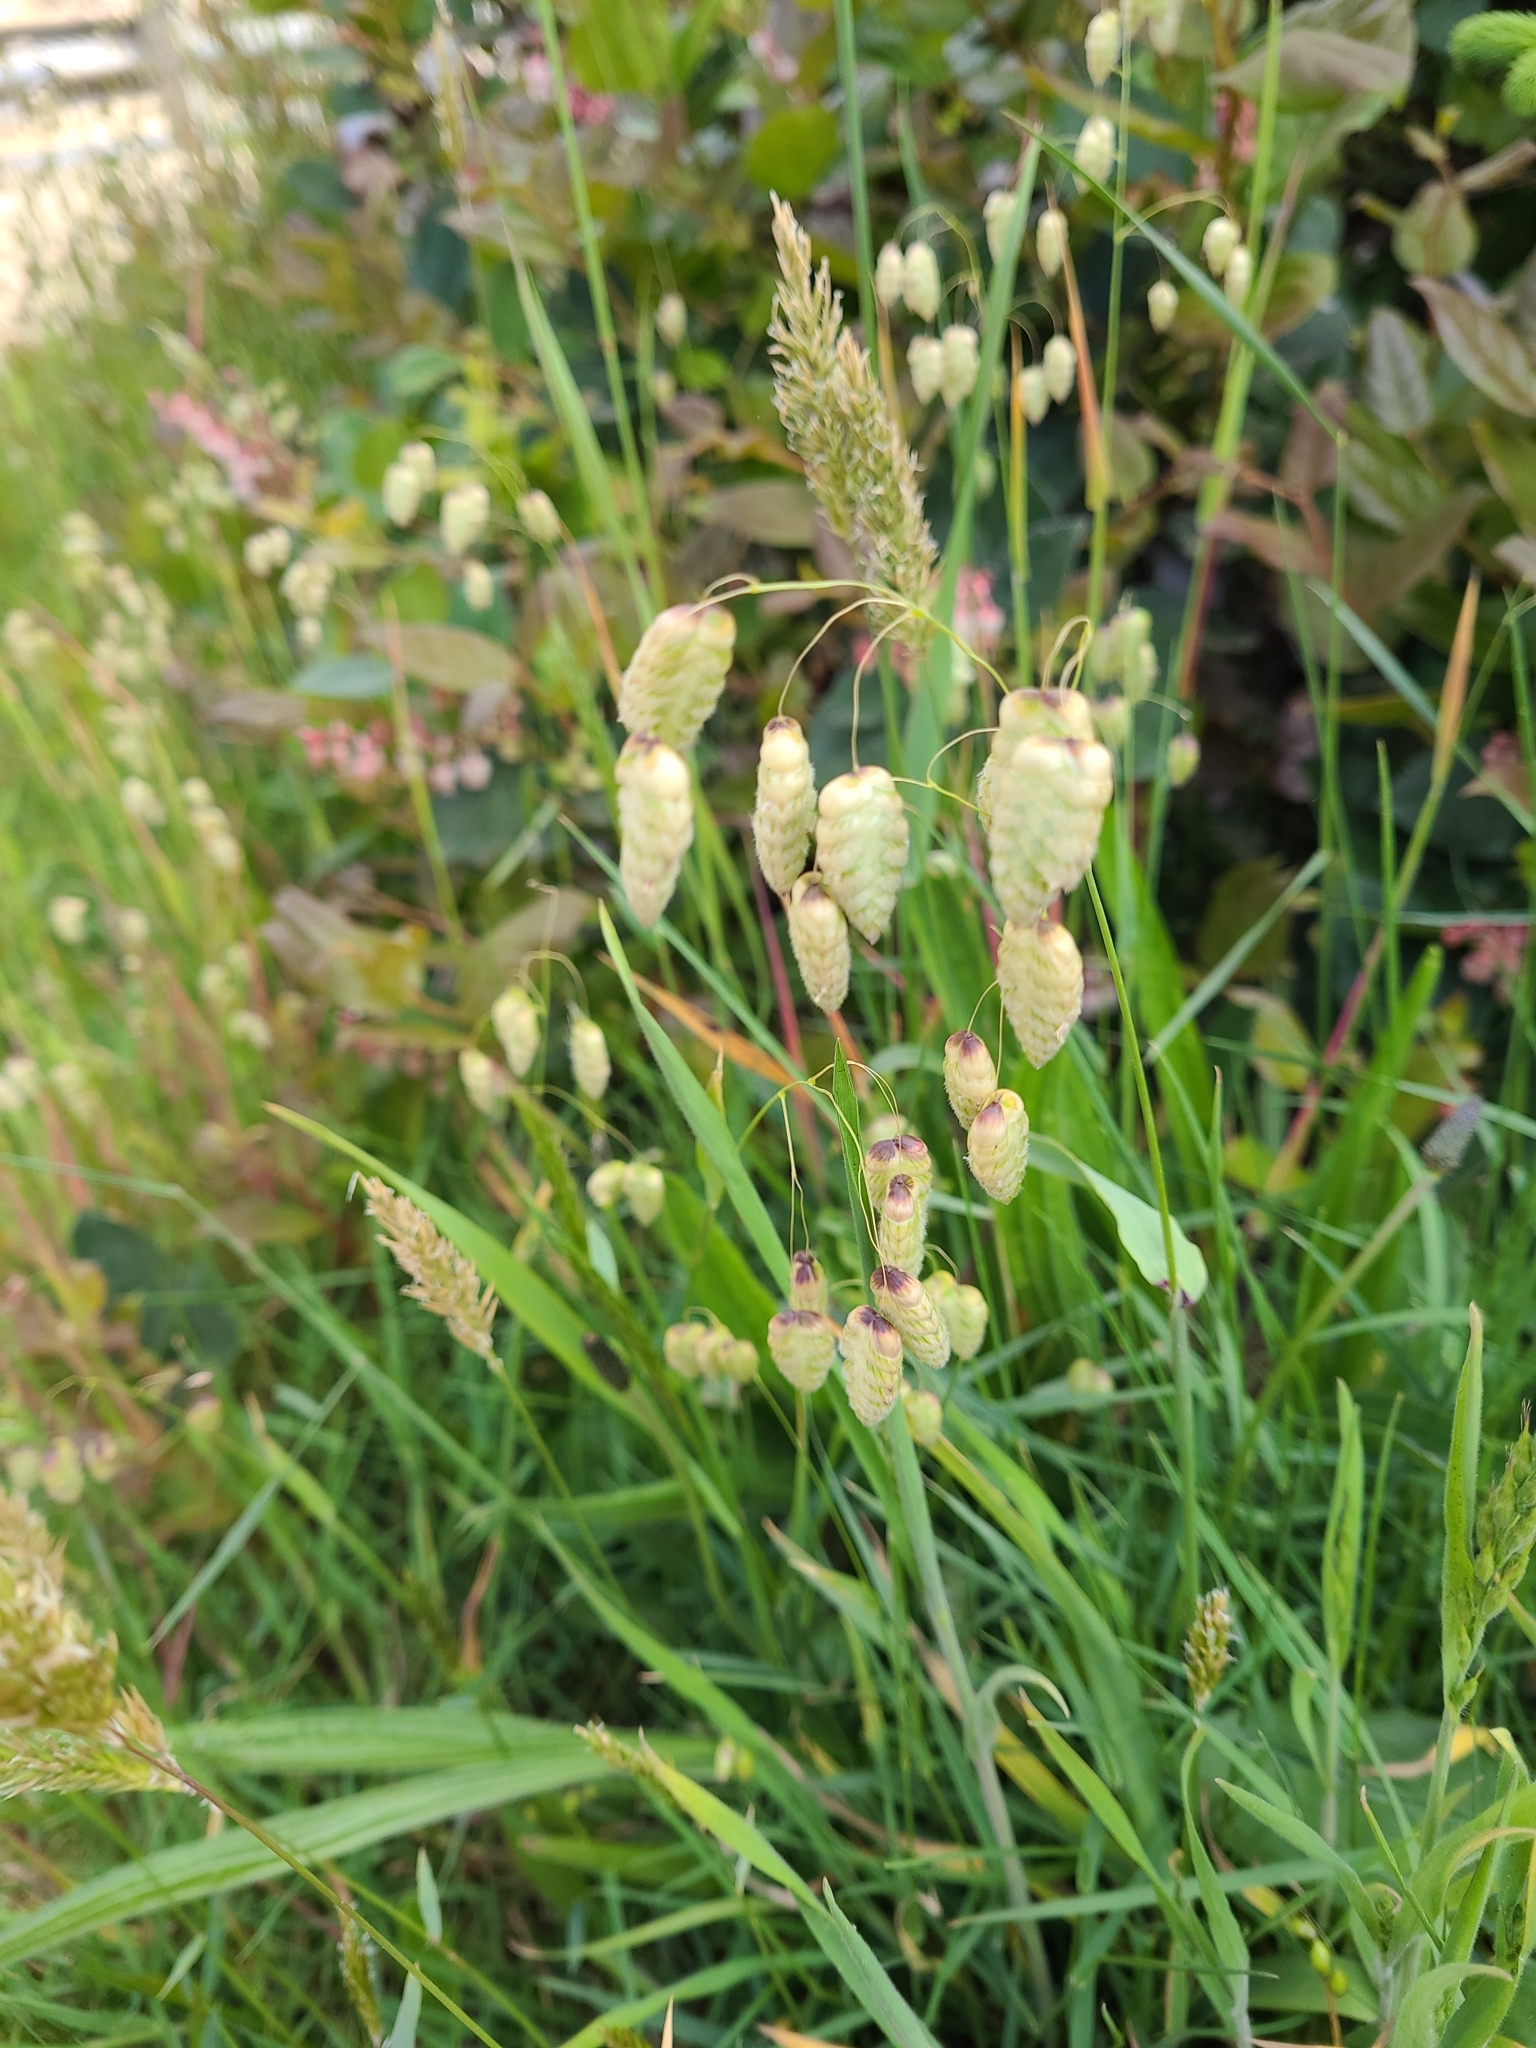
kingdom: Plantae
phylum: Tracheophyta
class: Liliopsida
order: Poales
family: Poaceae
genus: Briza
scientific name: Briza maxima
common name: Big quakinggrass
